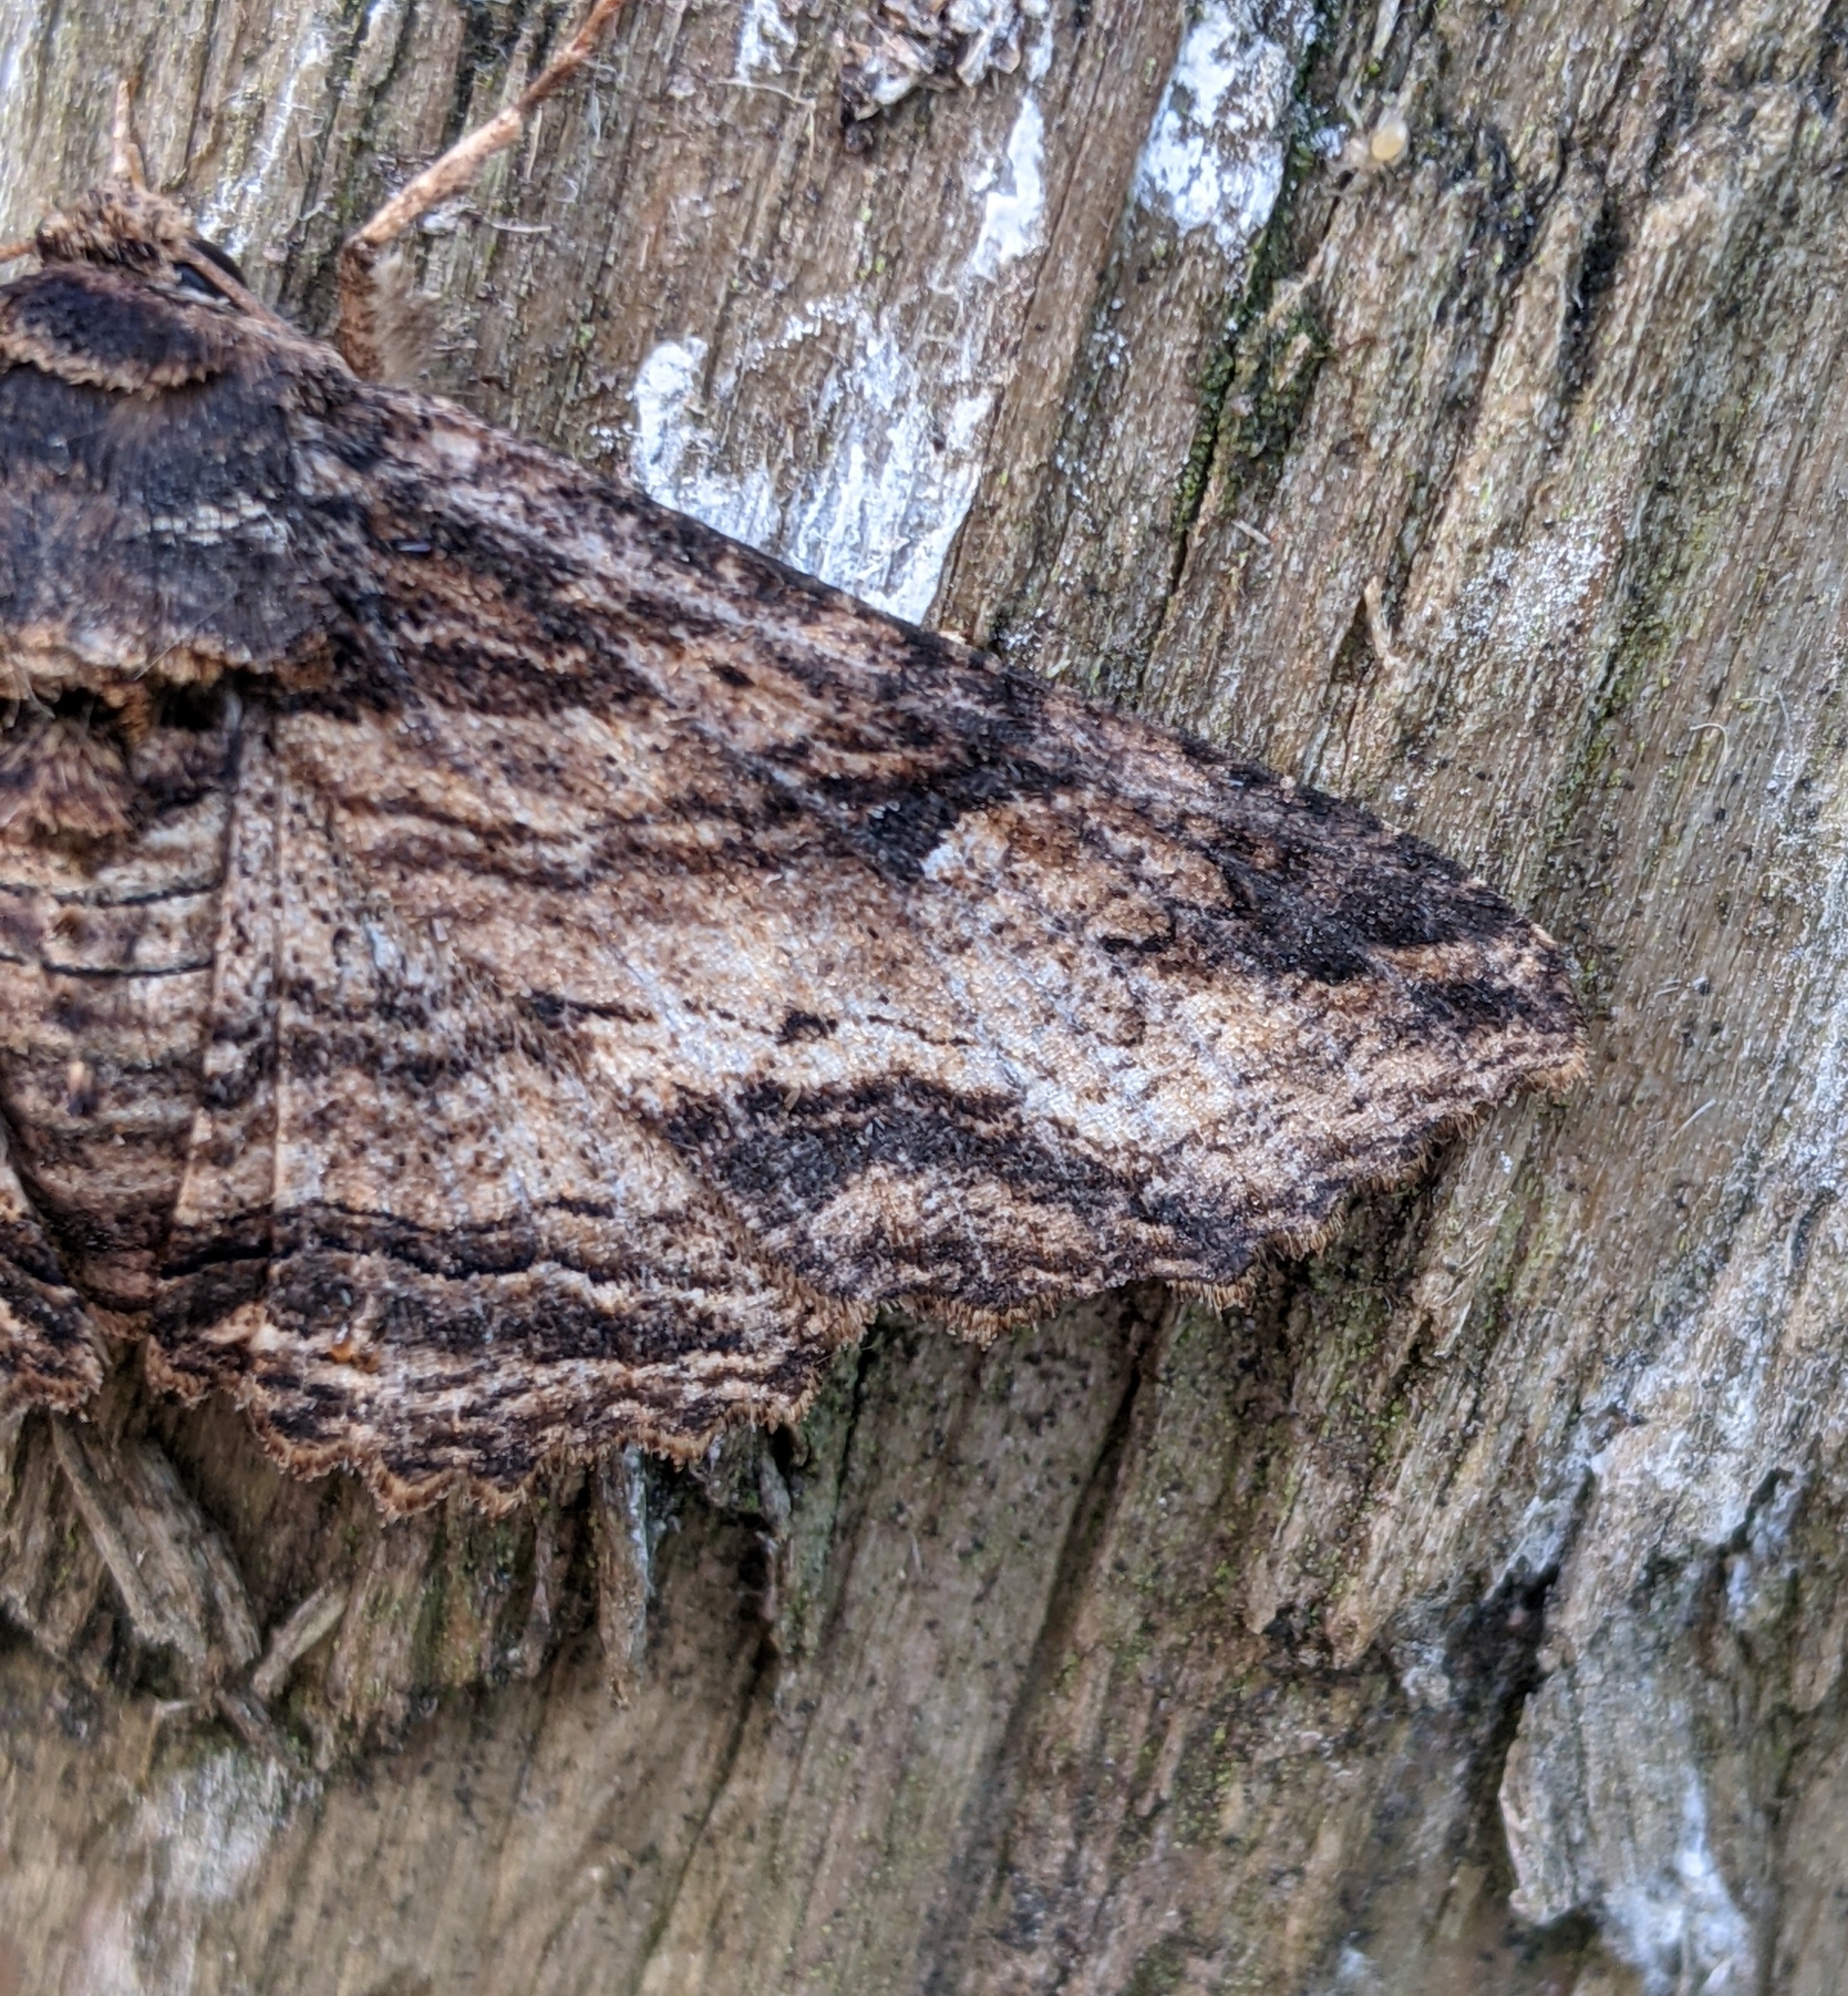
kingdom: Animalia
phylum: Arthropoda
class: Insecta
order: Lepidoptera
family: Erebidae
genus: Zale
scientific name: Zale lunata
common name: Lunate zale moth
